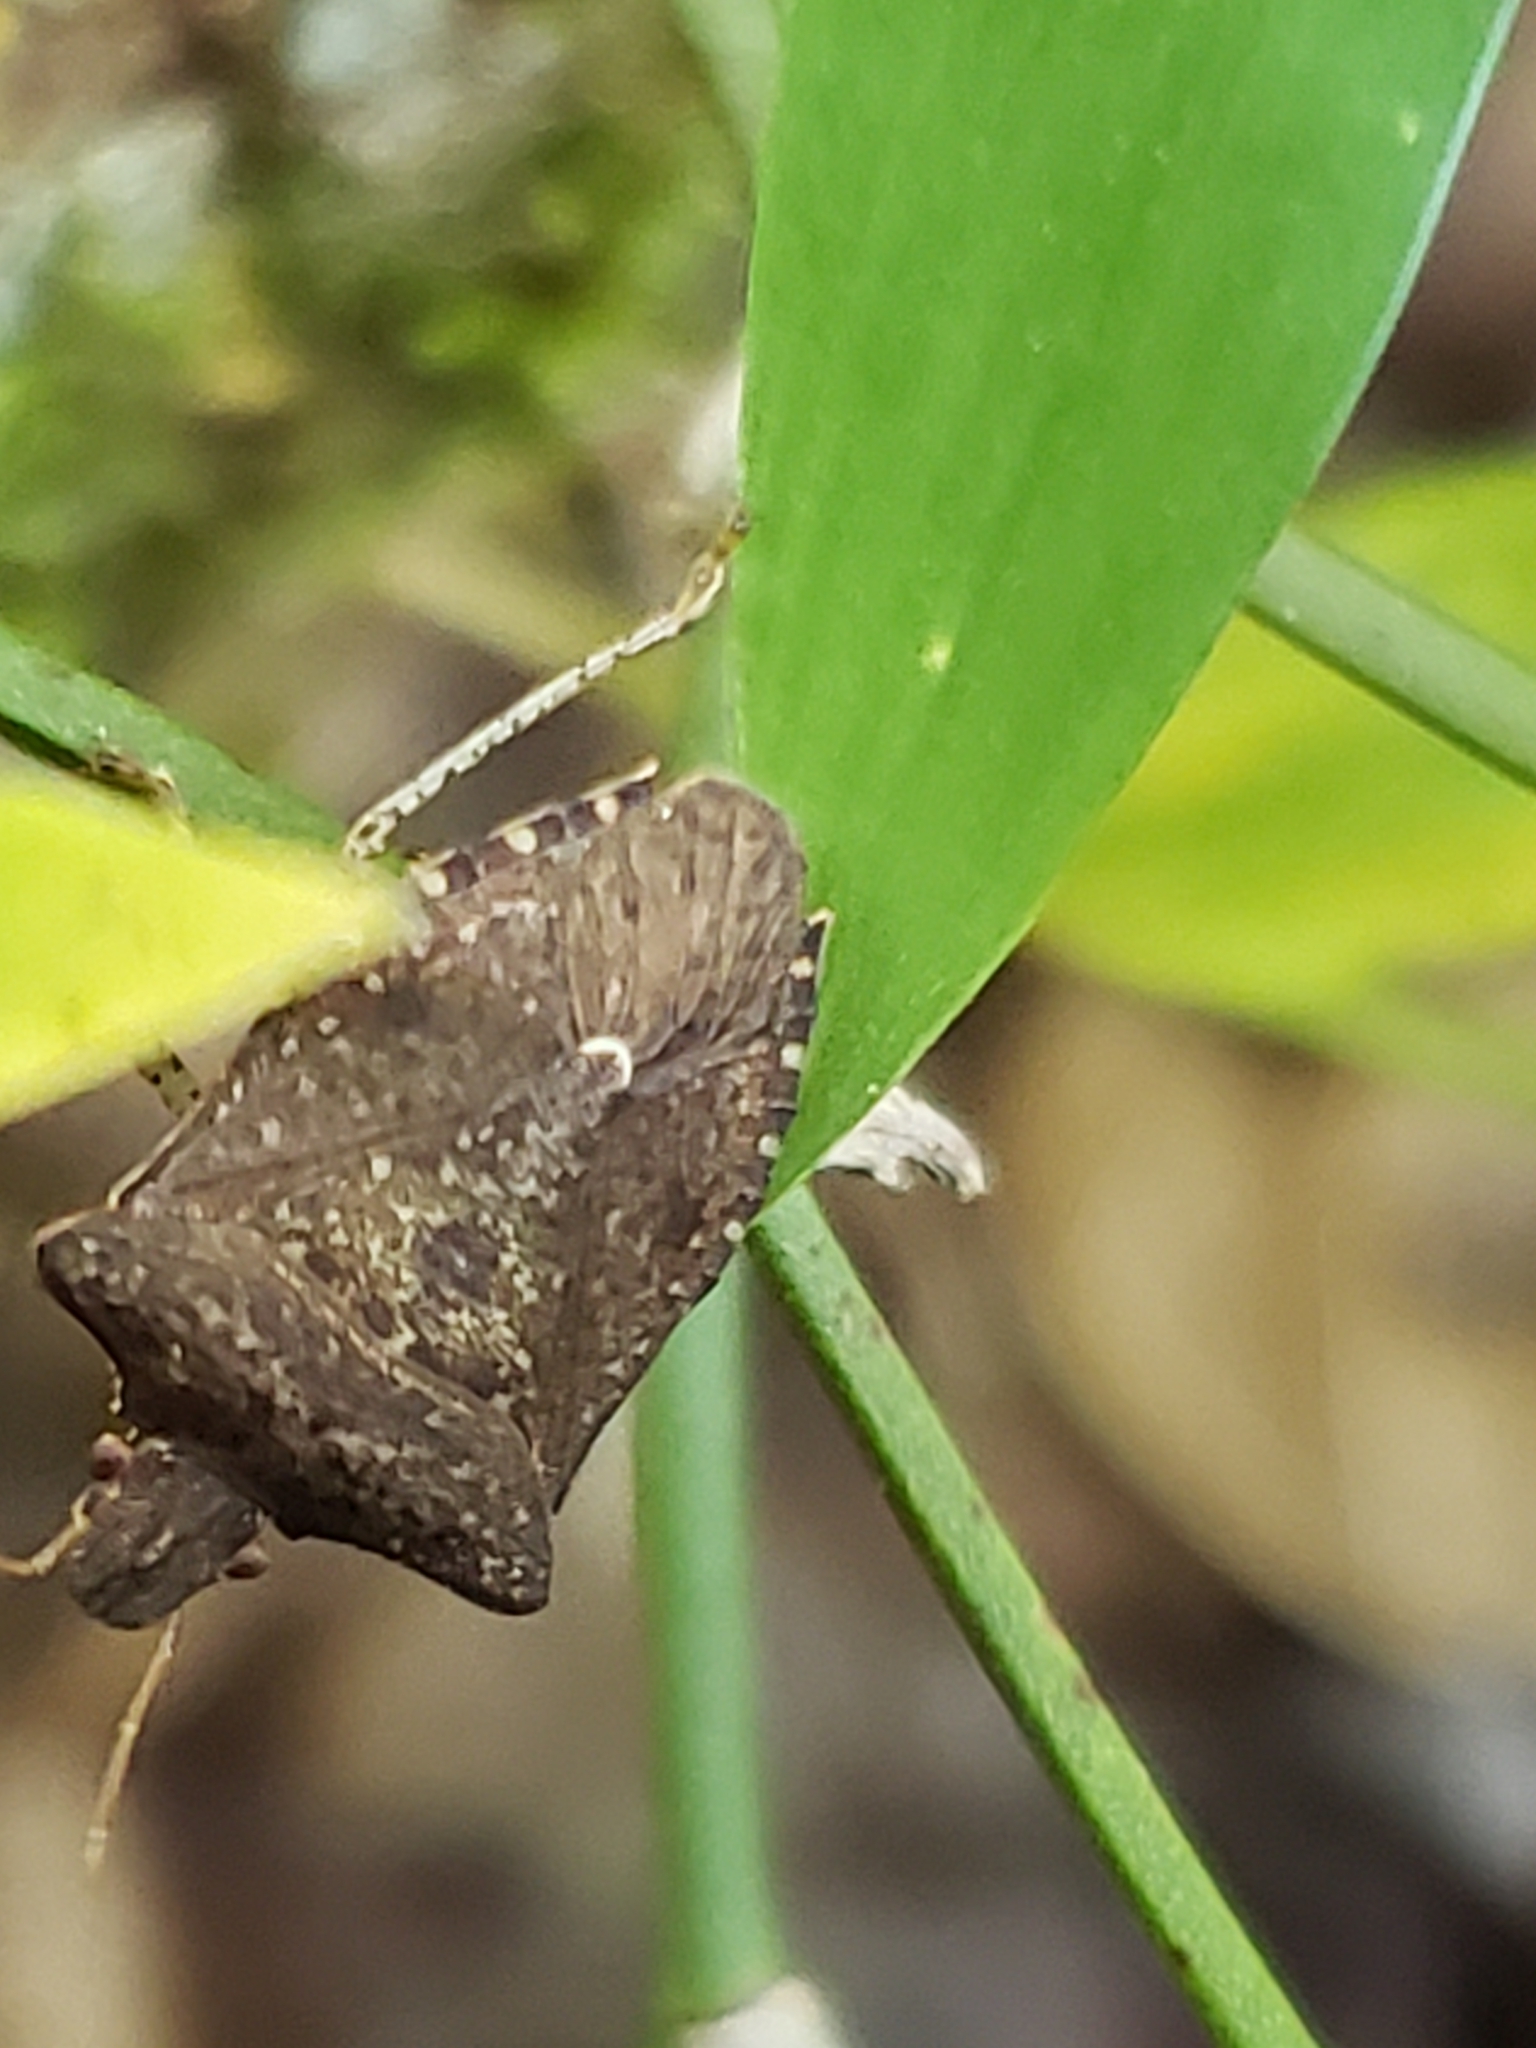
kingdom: Animalia
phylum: Arthropoda
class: Insecta
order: Hemiptera
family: Pentatomidae
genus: Euschistus
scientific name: Euschistus tristigmus
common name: Dusky stink bug
